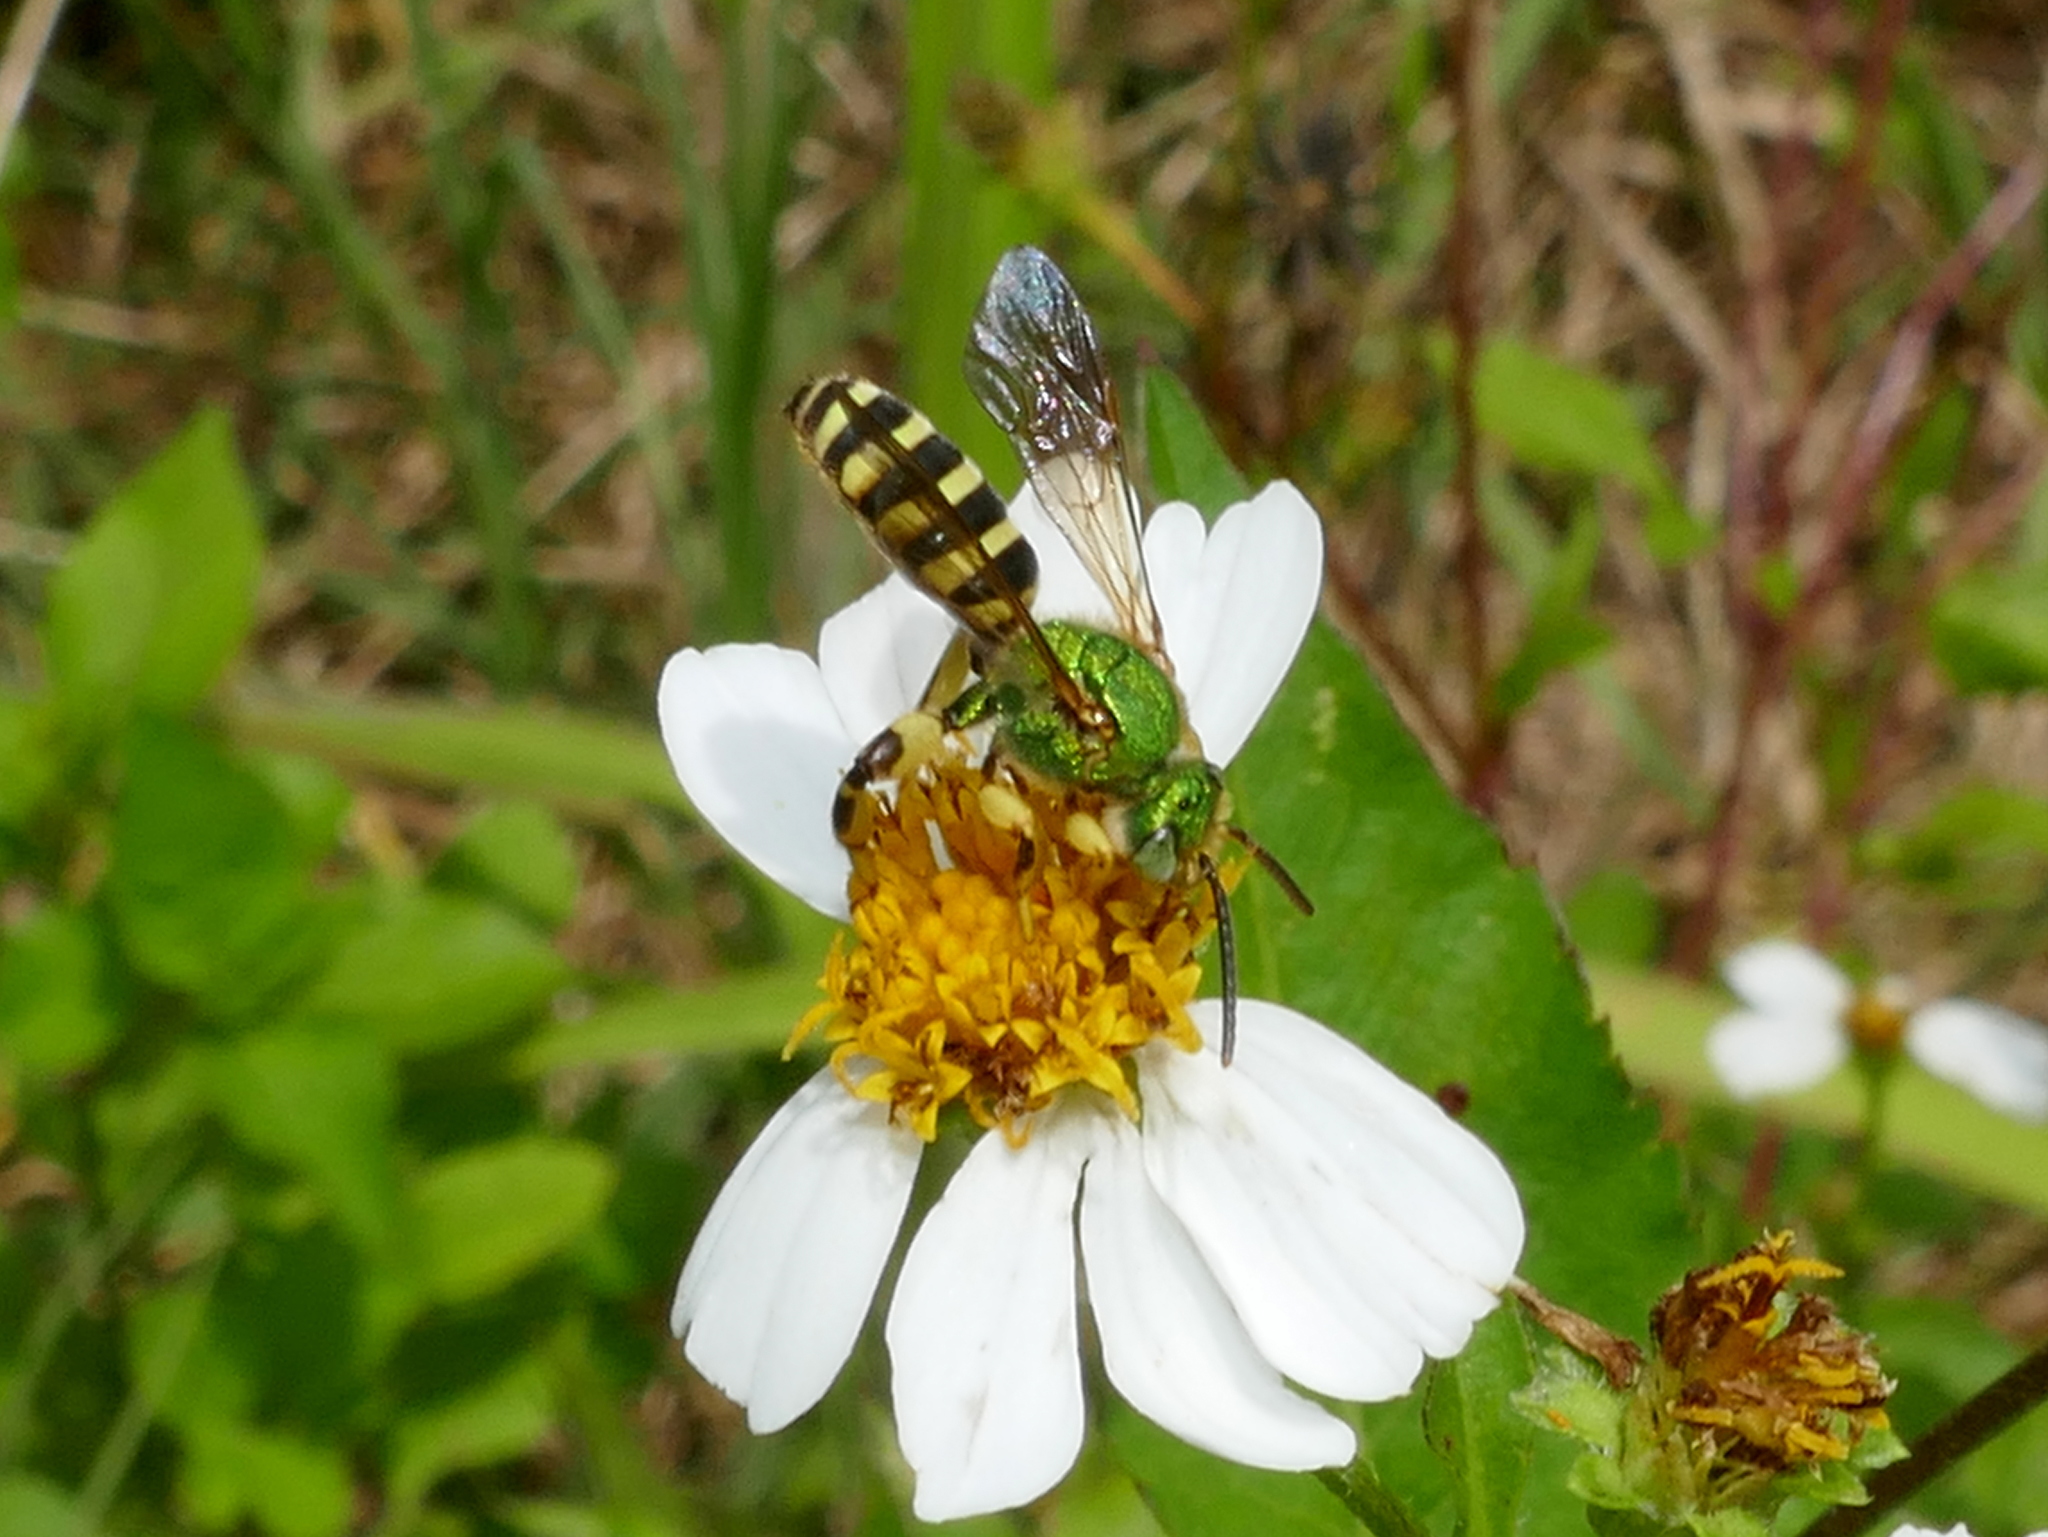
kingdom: Animalia
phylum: Arthropoda
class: Insecta
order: Hymenoptera
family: Halictidae
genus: Agapostemon
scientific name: Agapostemon splendens
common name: Brown-winged striped sweat bee
